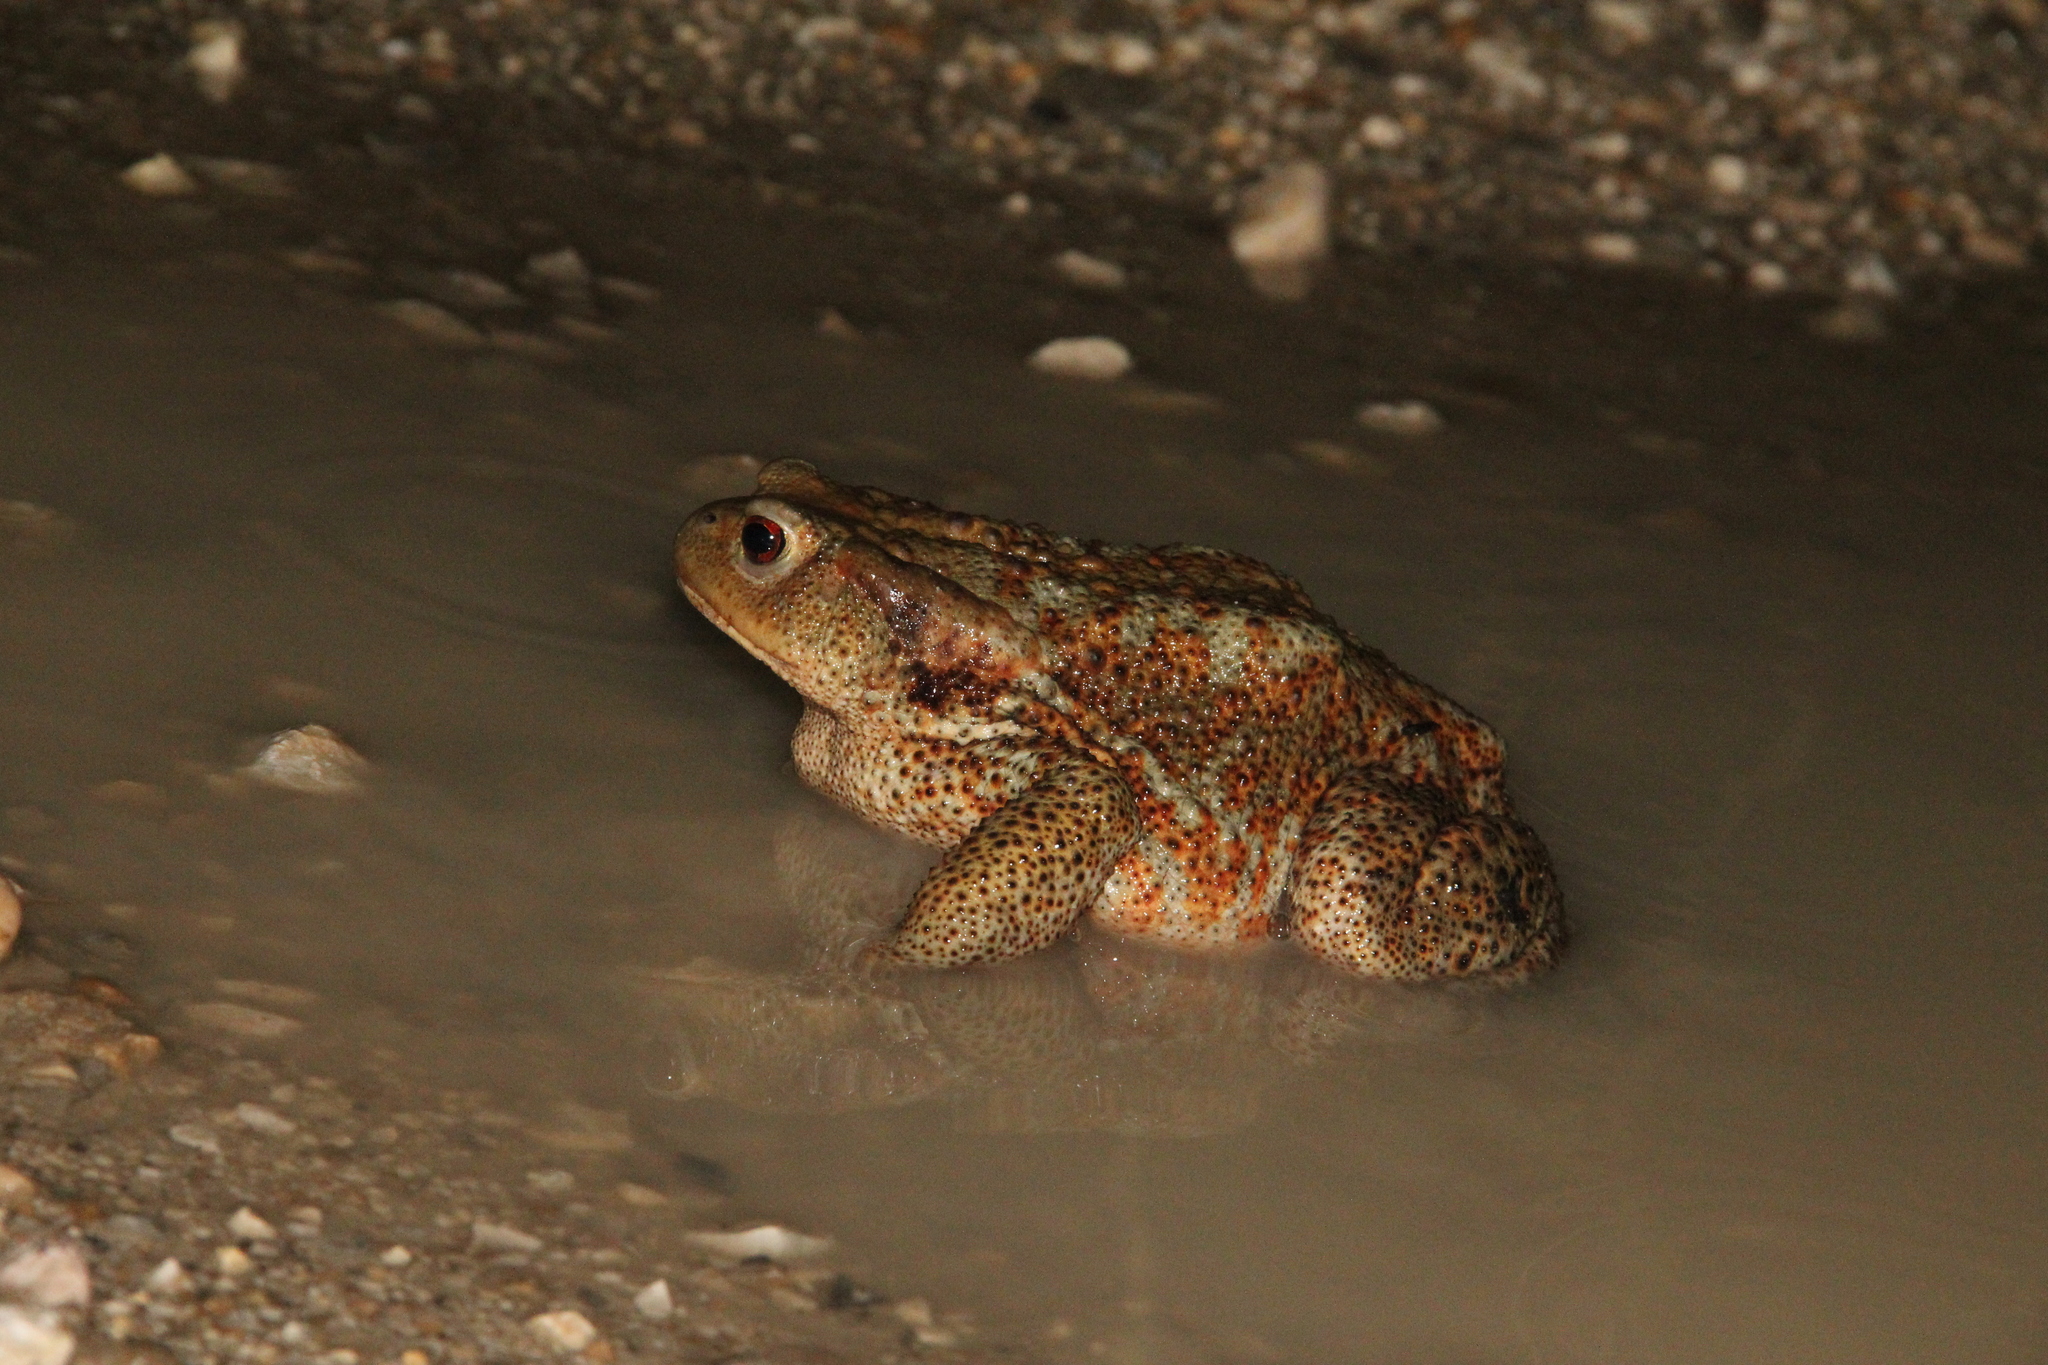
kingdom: Animalia
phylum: Chordata
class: Amphibia
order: Anura
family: Bufonidae
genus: Bufo
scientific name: Bufo bufo
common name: Common toad
